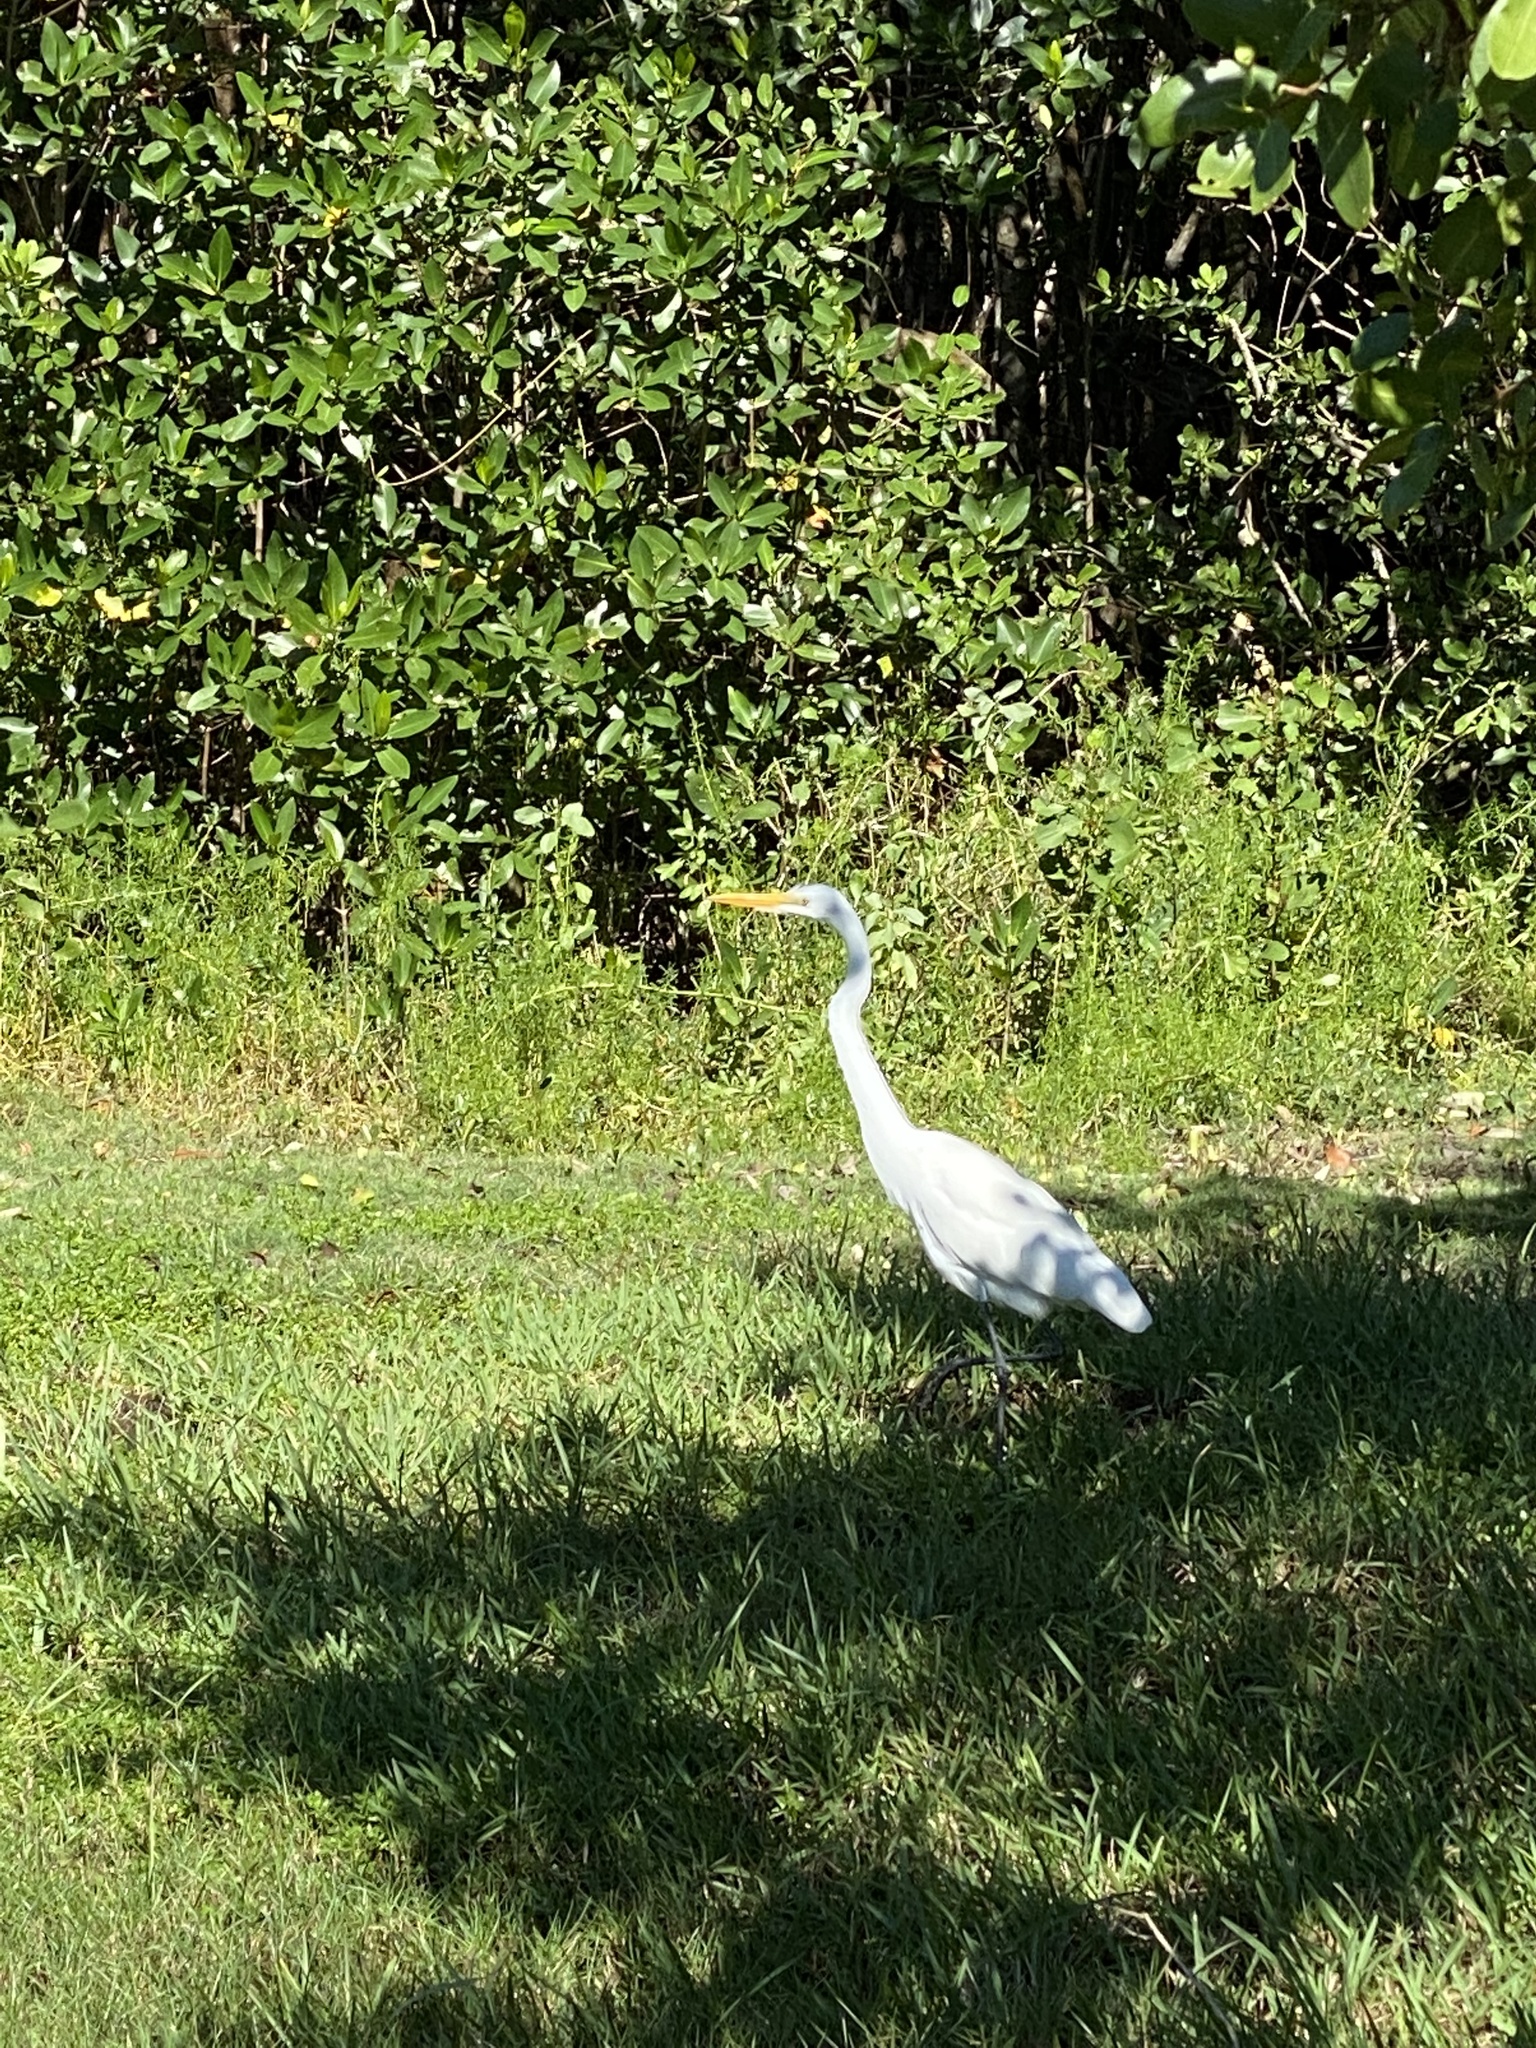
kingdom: Animalia
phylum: Chordata
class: Aves
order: Pelecaniformes
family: Ardeidae
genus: Ardea
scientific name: Ardea alba
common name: Great egret
